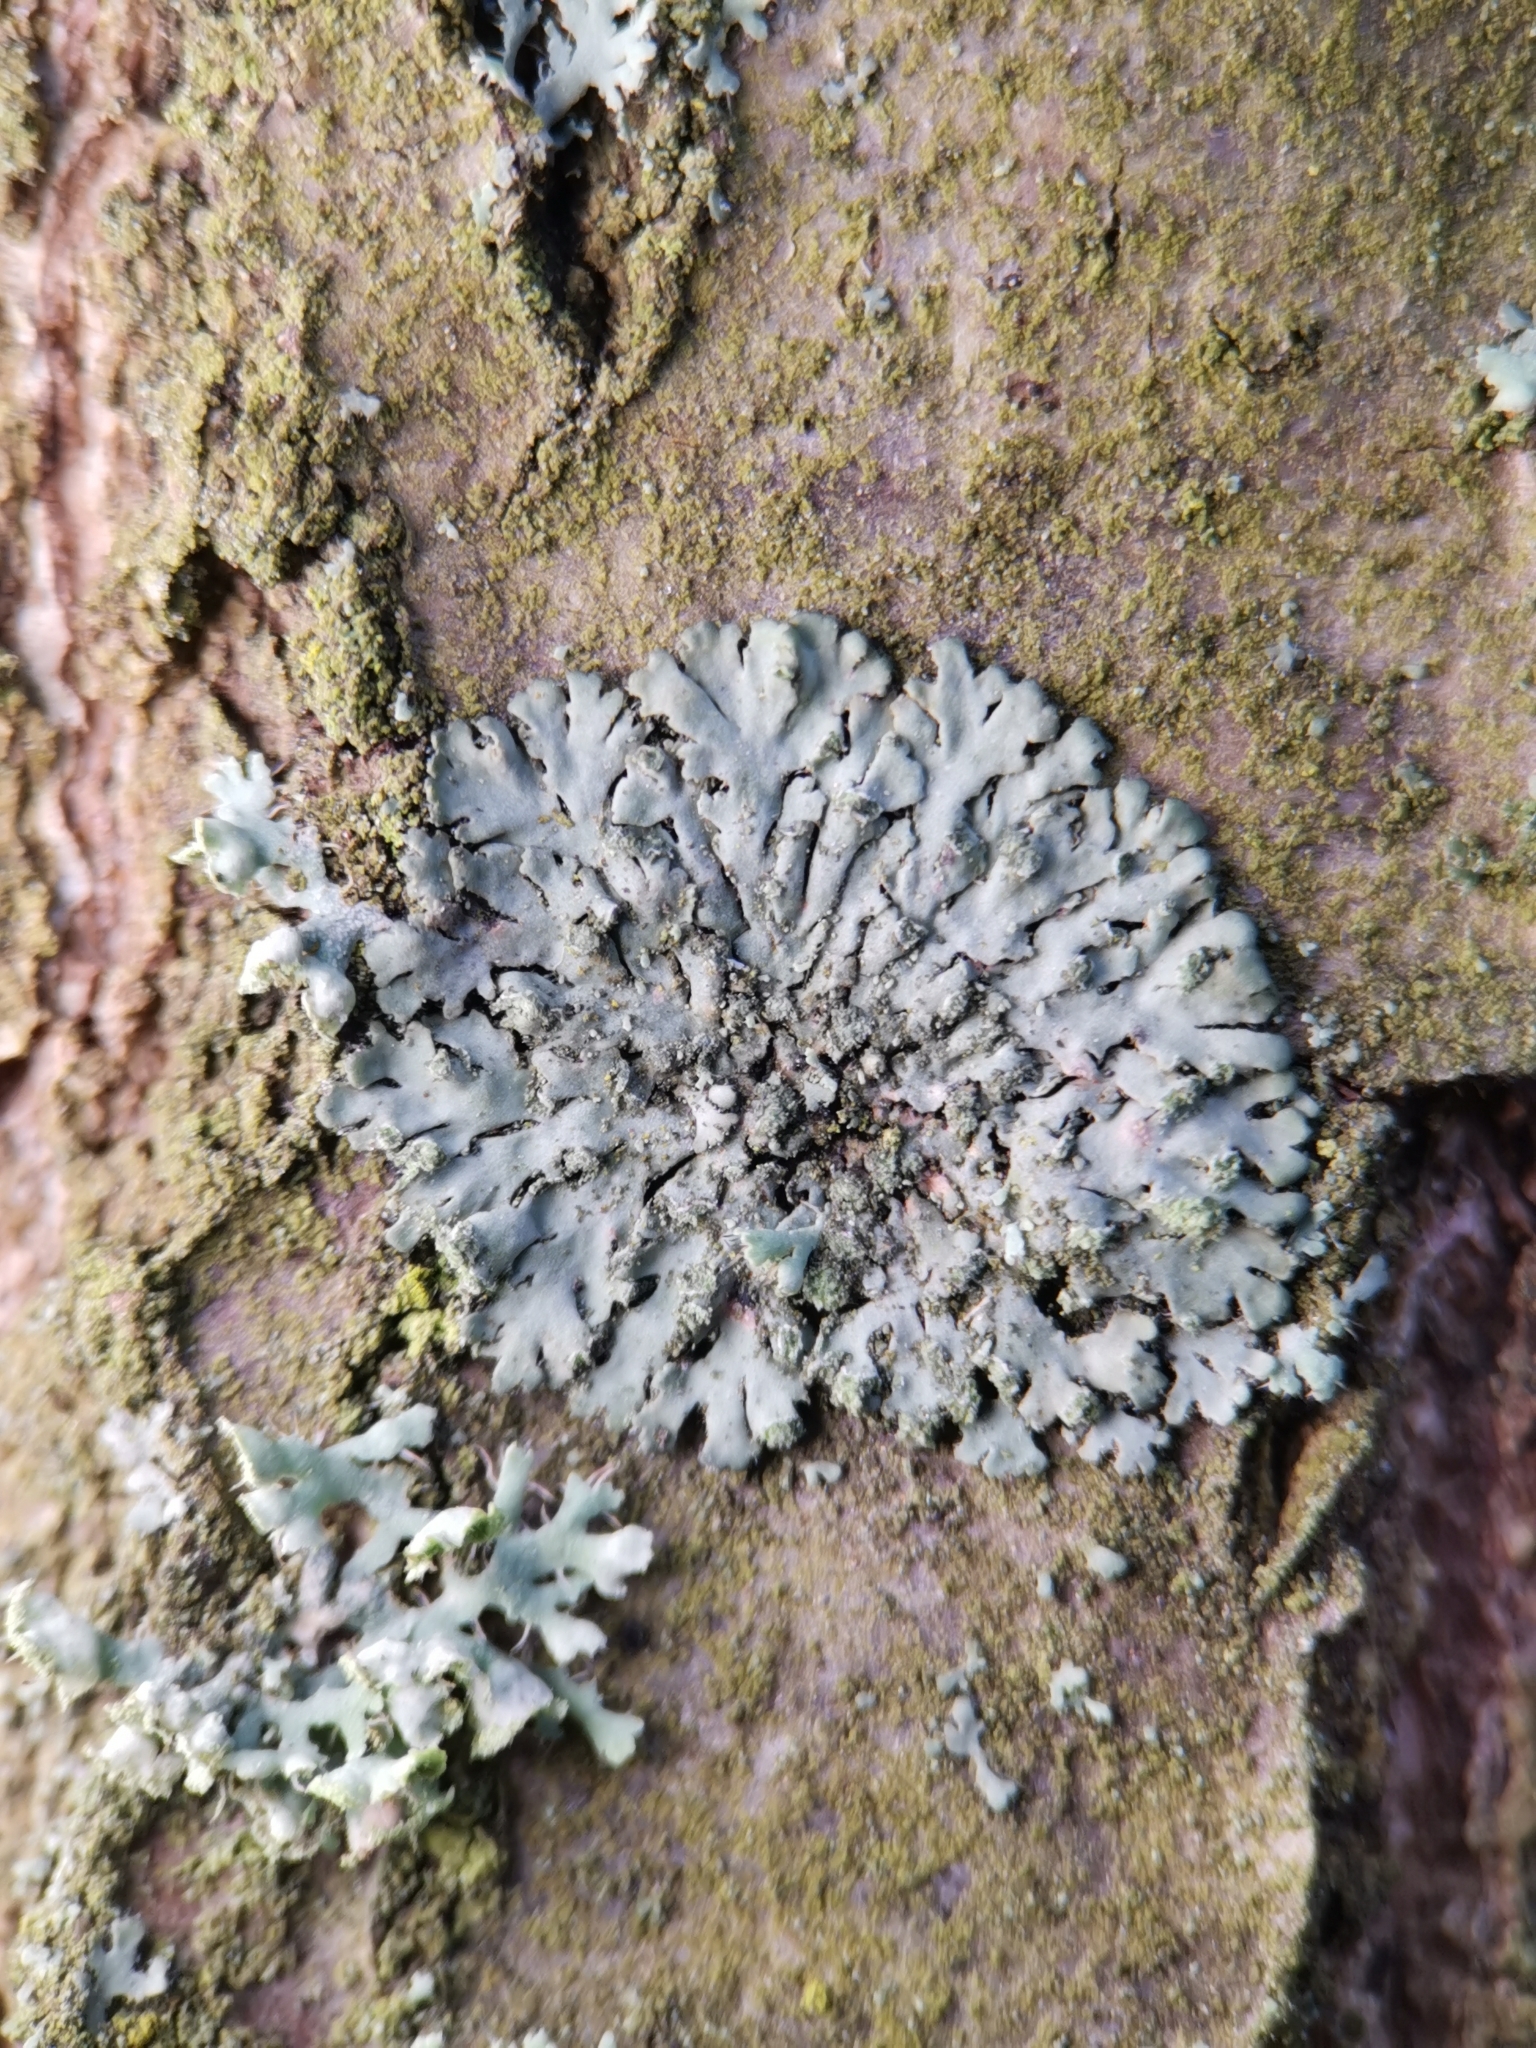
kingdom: Fungi
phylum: Ascomycota
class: Lecanoromycetes
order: Caliciales
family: Physciaceae
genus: Phaeophyscia
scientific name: Phaeophyscia orbicularis
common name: Mealy shadow lichen
